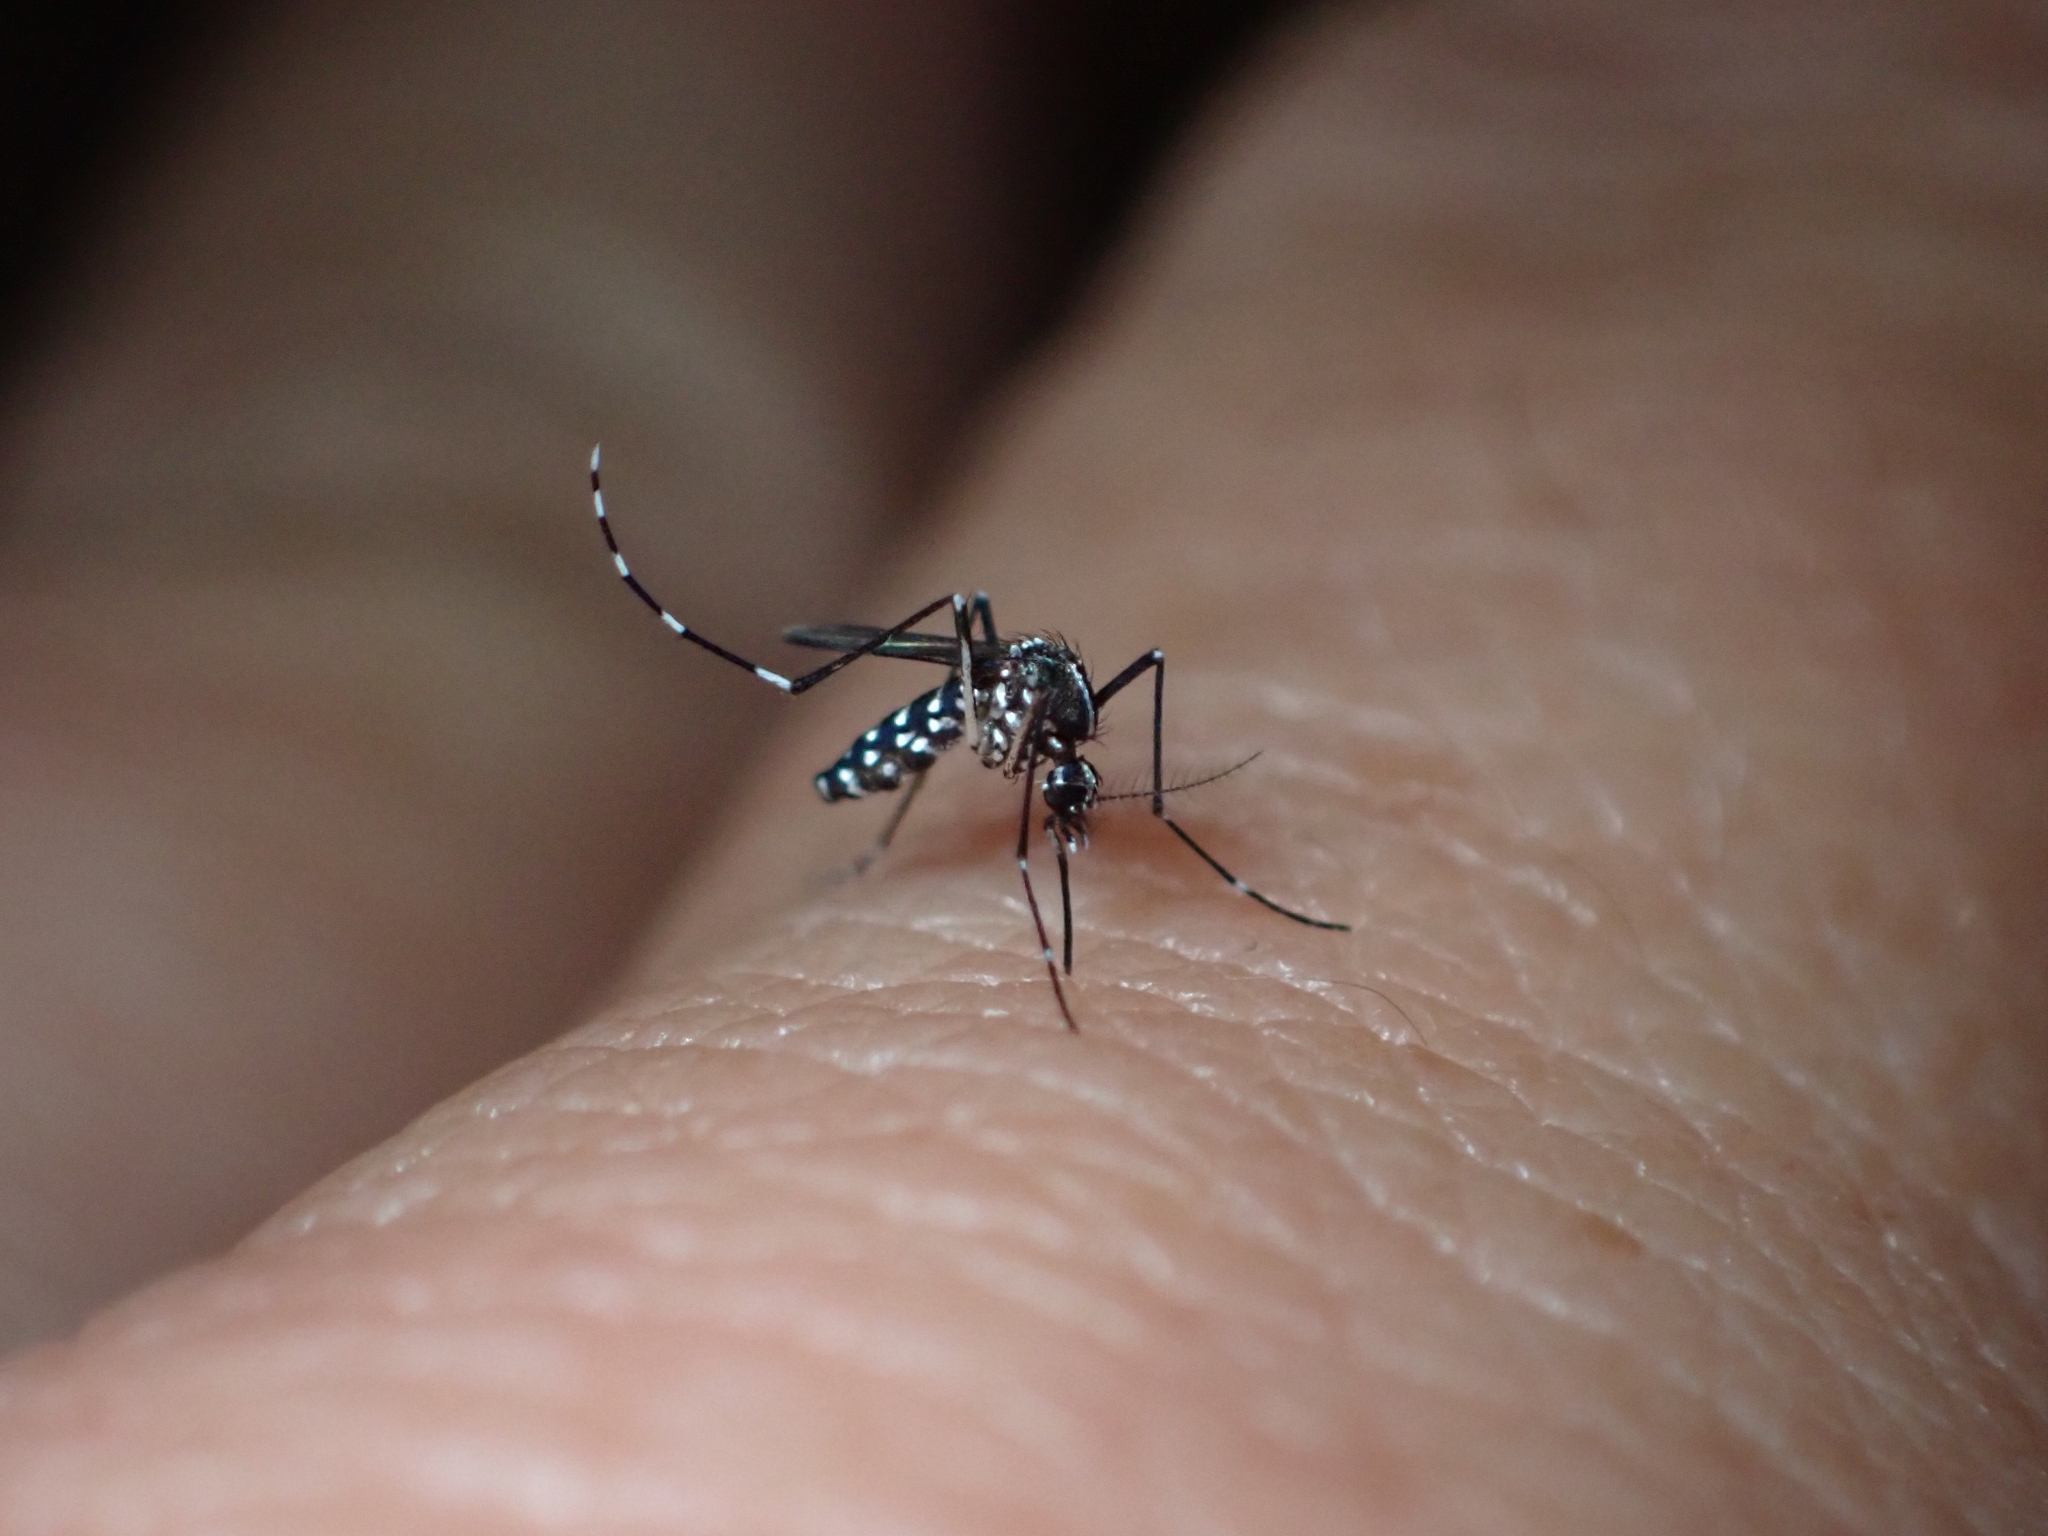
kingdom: Animalia
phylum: Arthropoda
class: Insecta
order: Diptera
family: Culicidae
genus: Aedes
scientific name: Aedes albopictus
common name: Tiger mosquito
